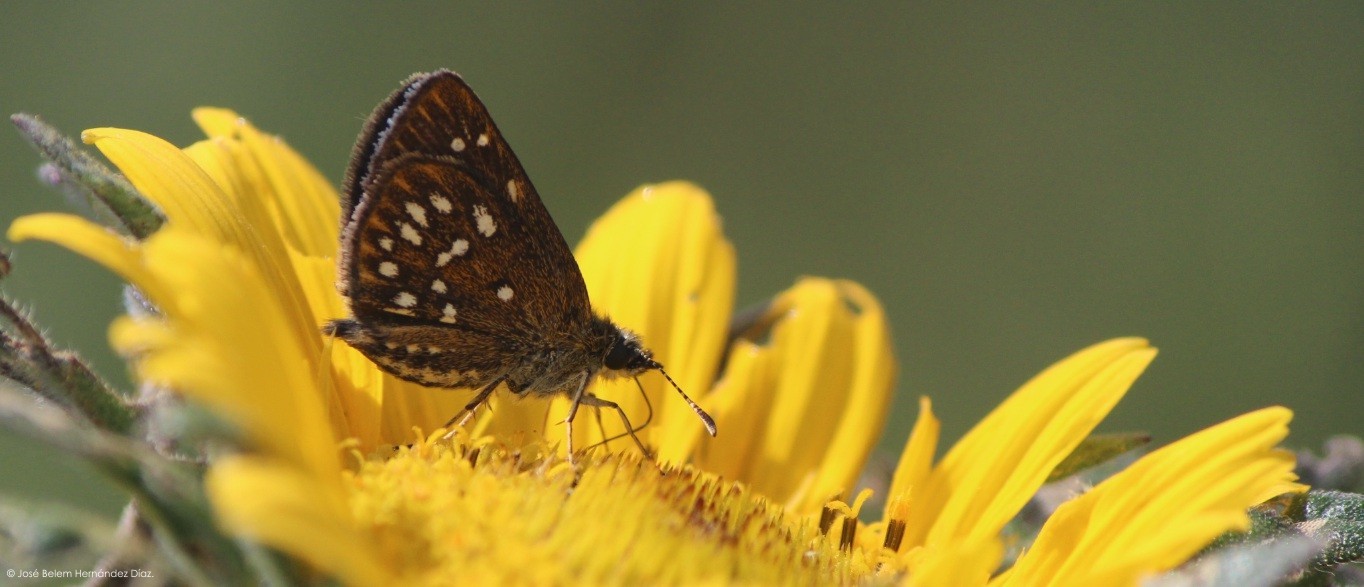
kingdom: Animalia
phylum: Arthropoda
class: Insecta
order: Lepidoptera
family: Hesperiidae
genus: Piruna
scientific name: Piruna aea
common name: Many-spotted skipperling
